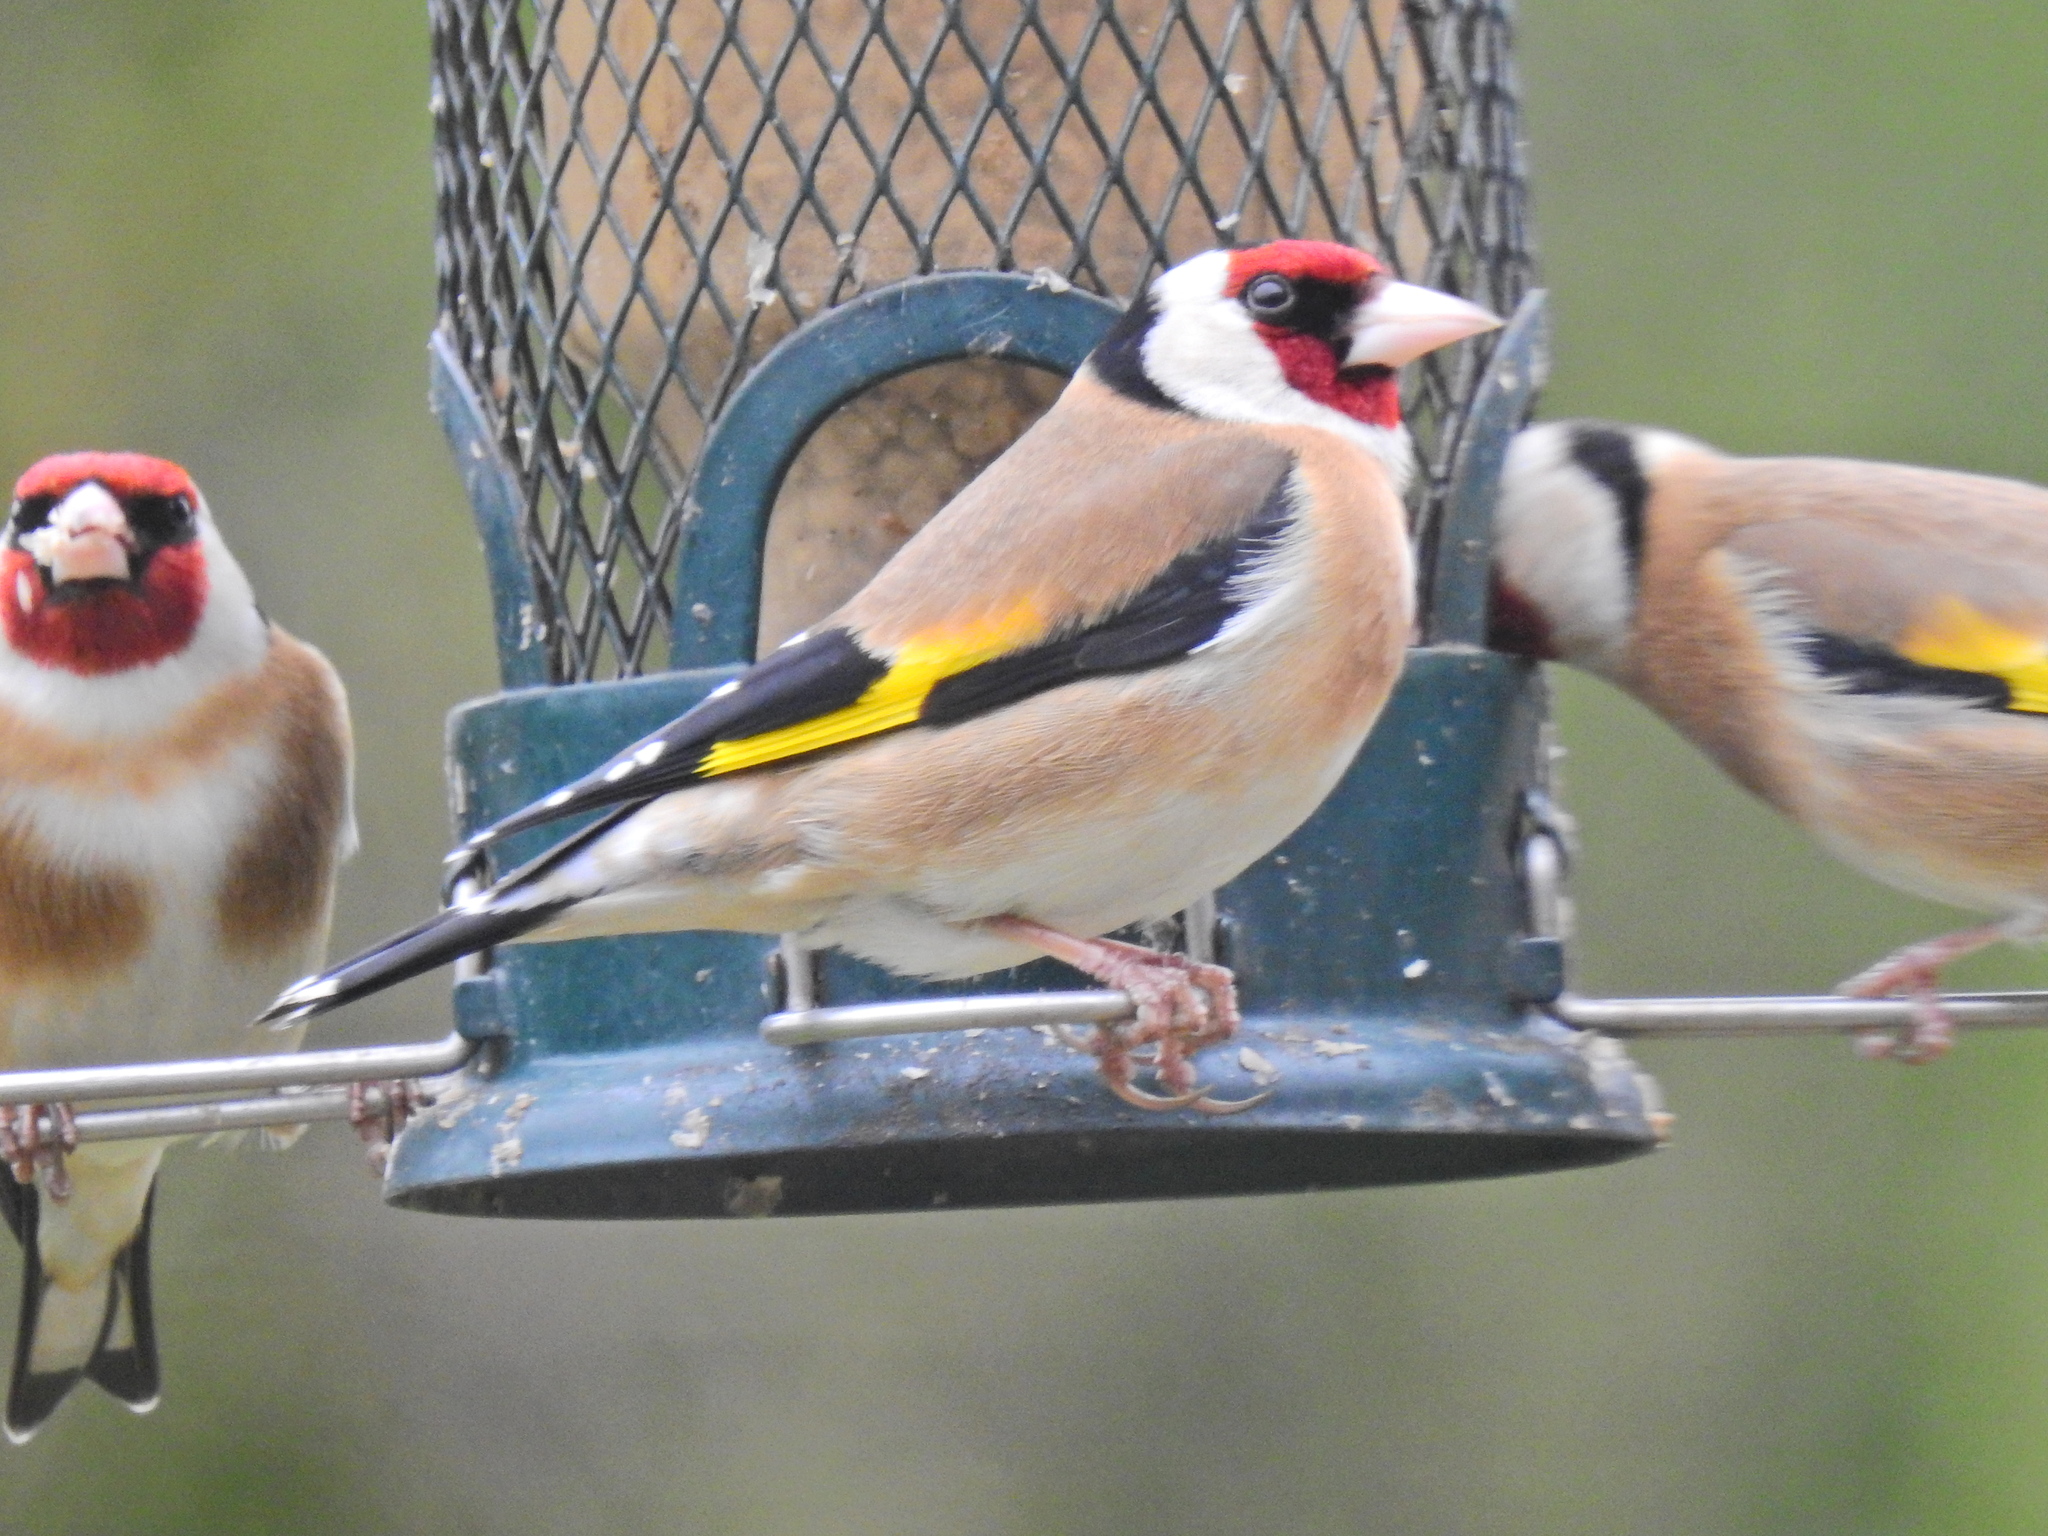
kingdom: Animalia
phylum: Chordata
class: Aves
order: Passeriformes
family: Fringillidae
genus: Carduelis
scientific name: Carduelis carduelis
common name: European goldfinch
